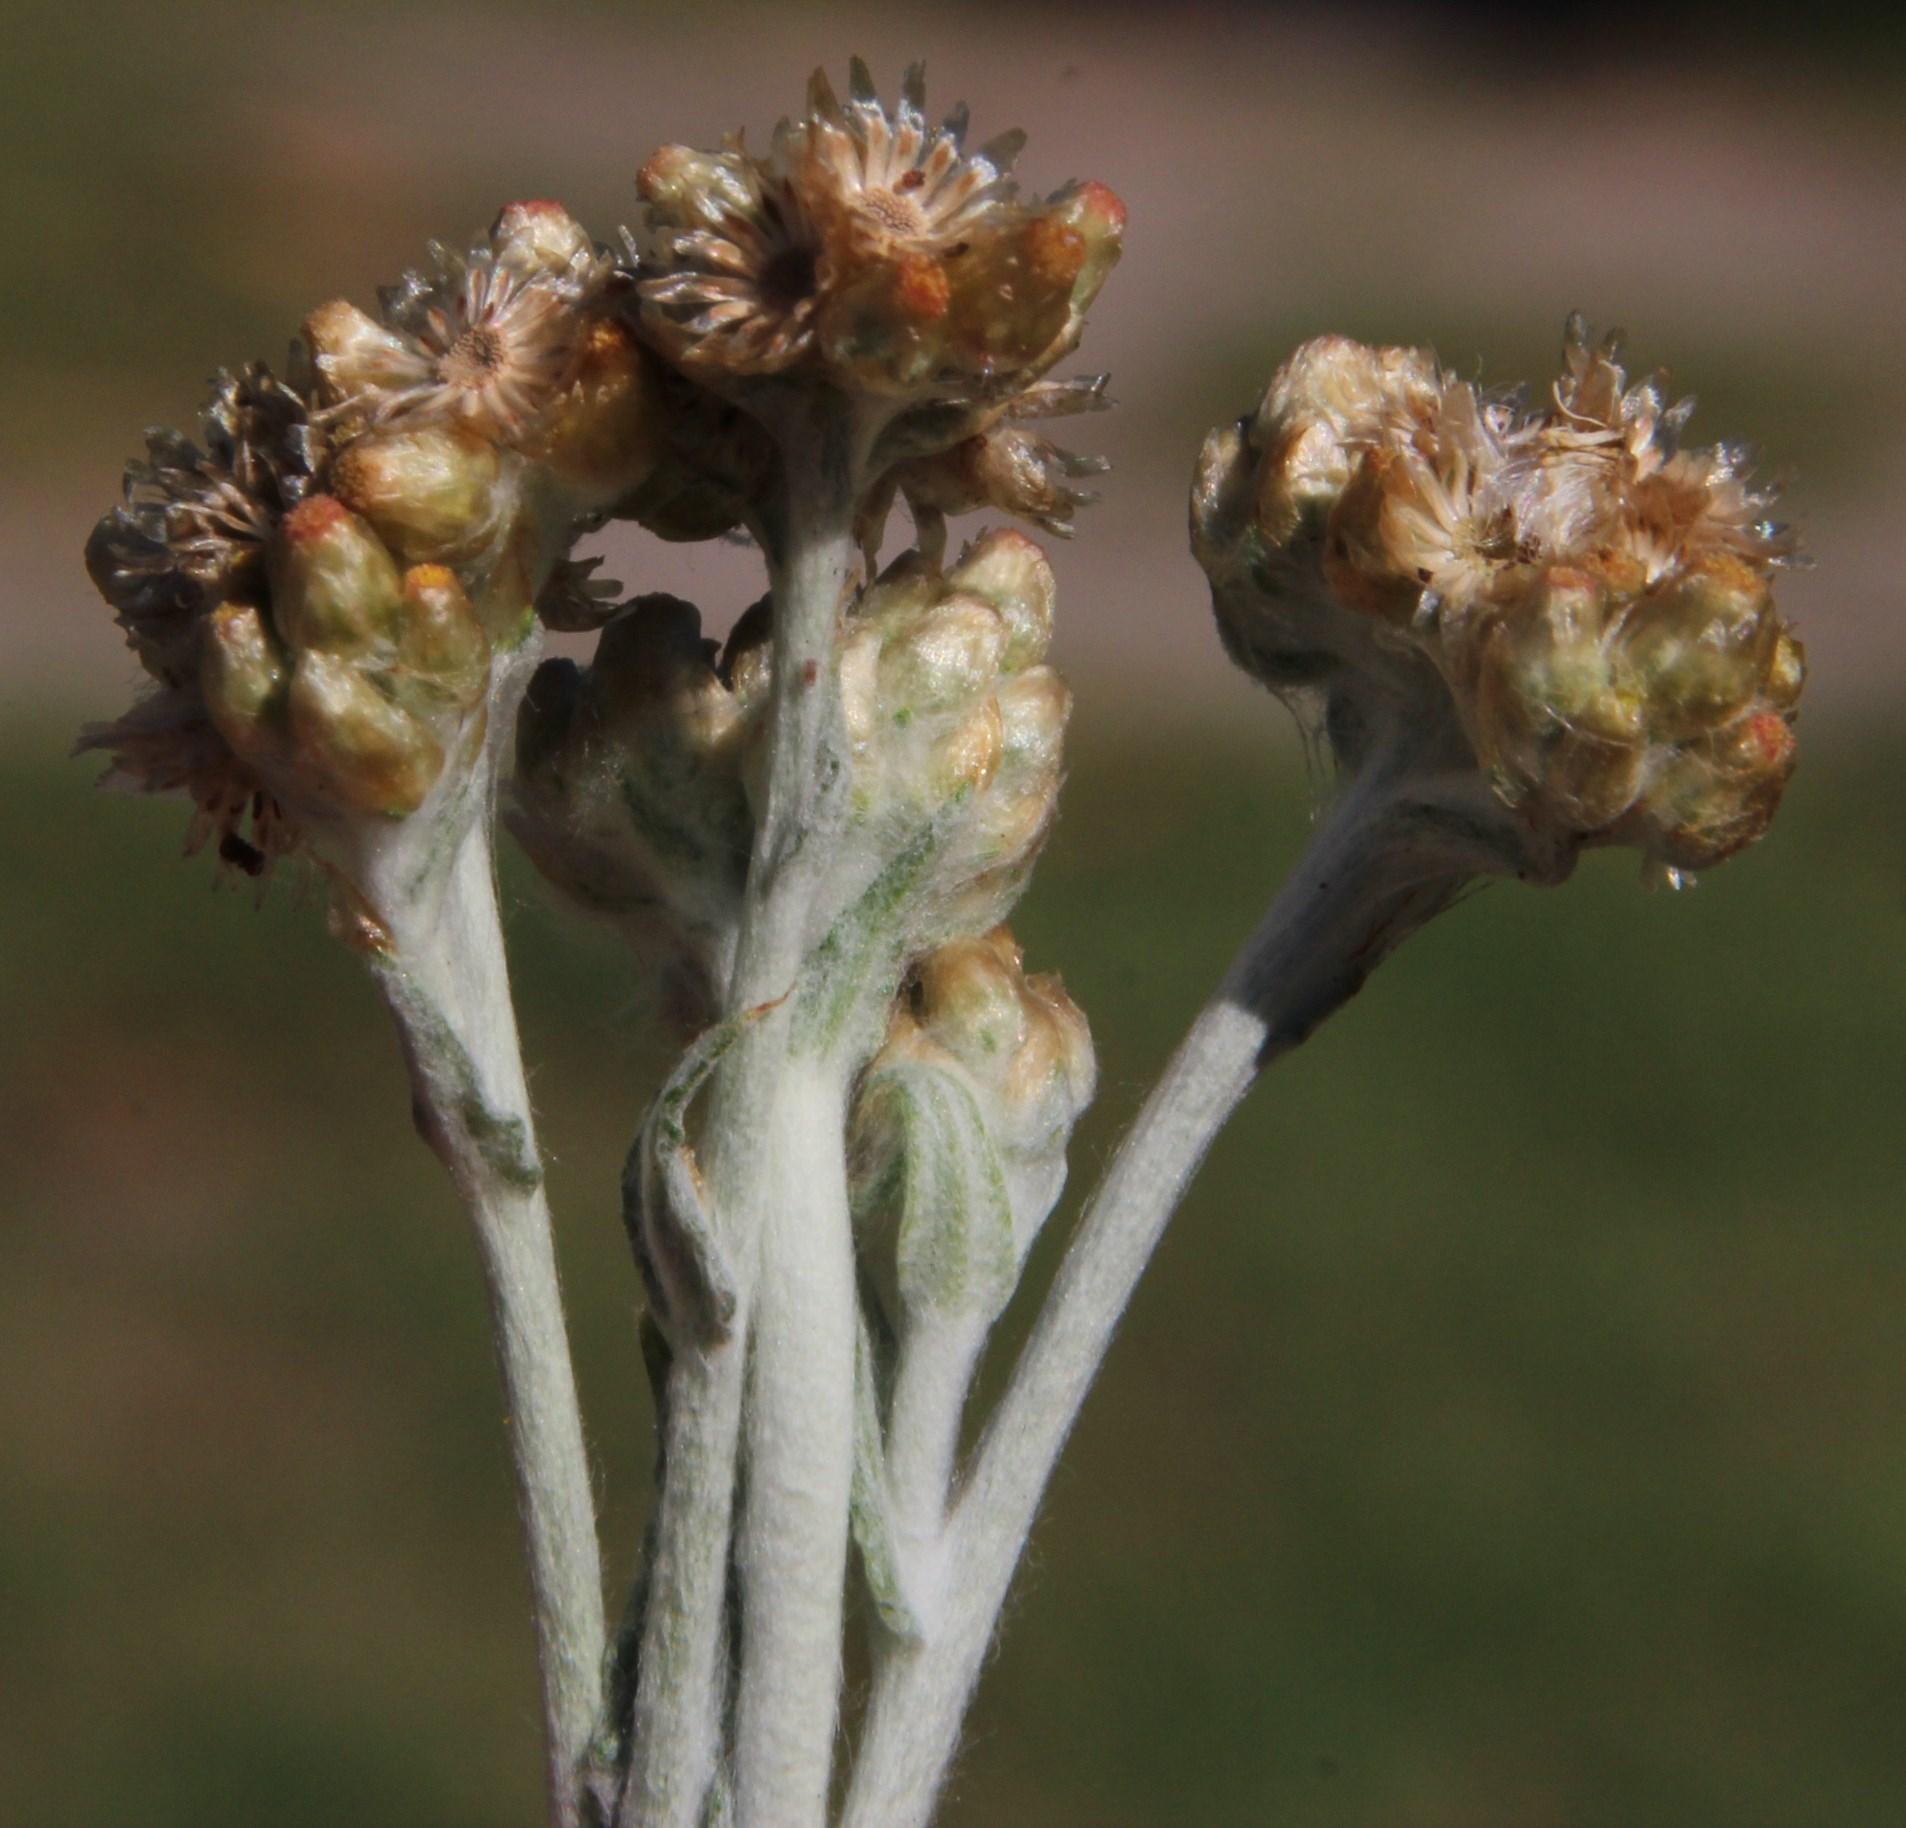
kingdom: Plantae
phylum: Tracheophyta
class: Magnoliopsida
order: Asterales
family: Asteraceae
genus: Helichrysum
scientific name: Helichrysum luteoalbum
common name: Daisy
